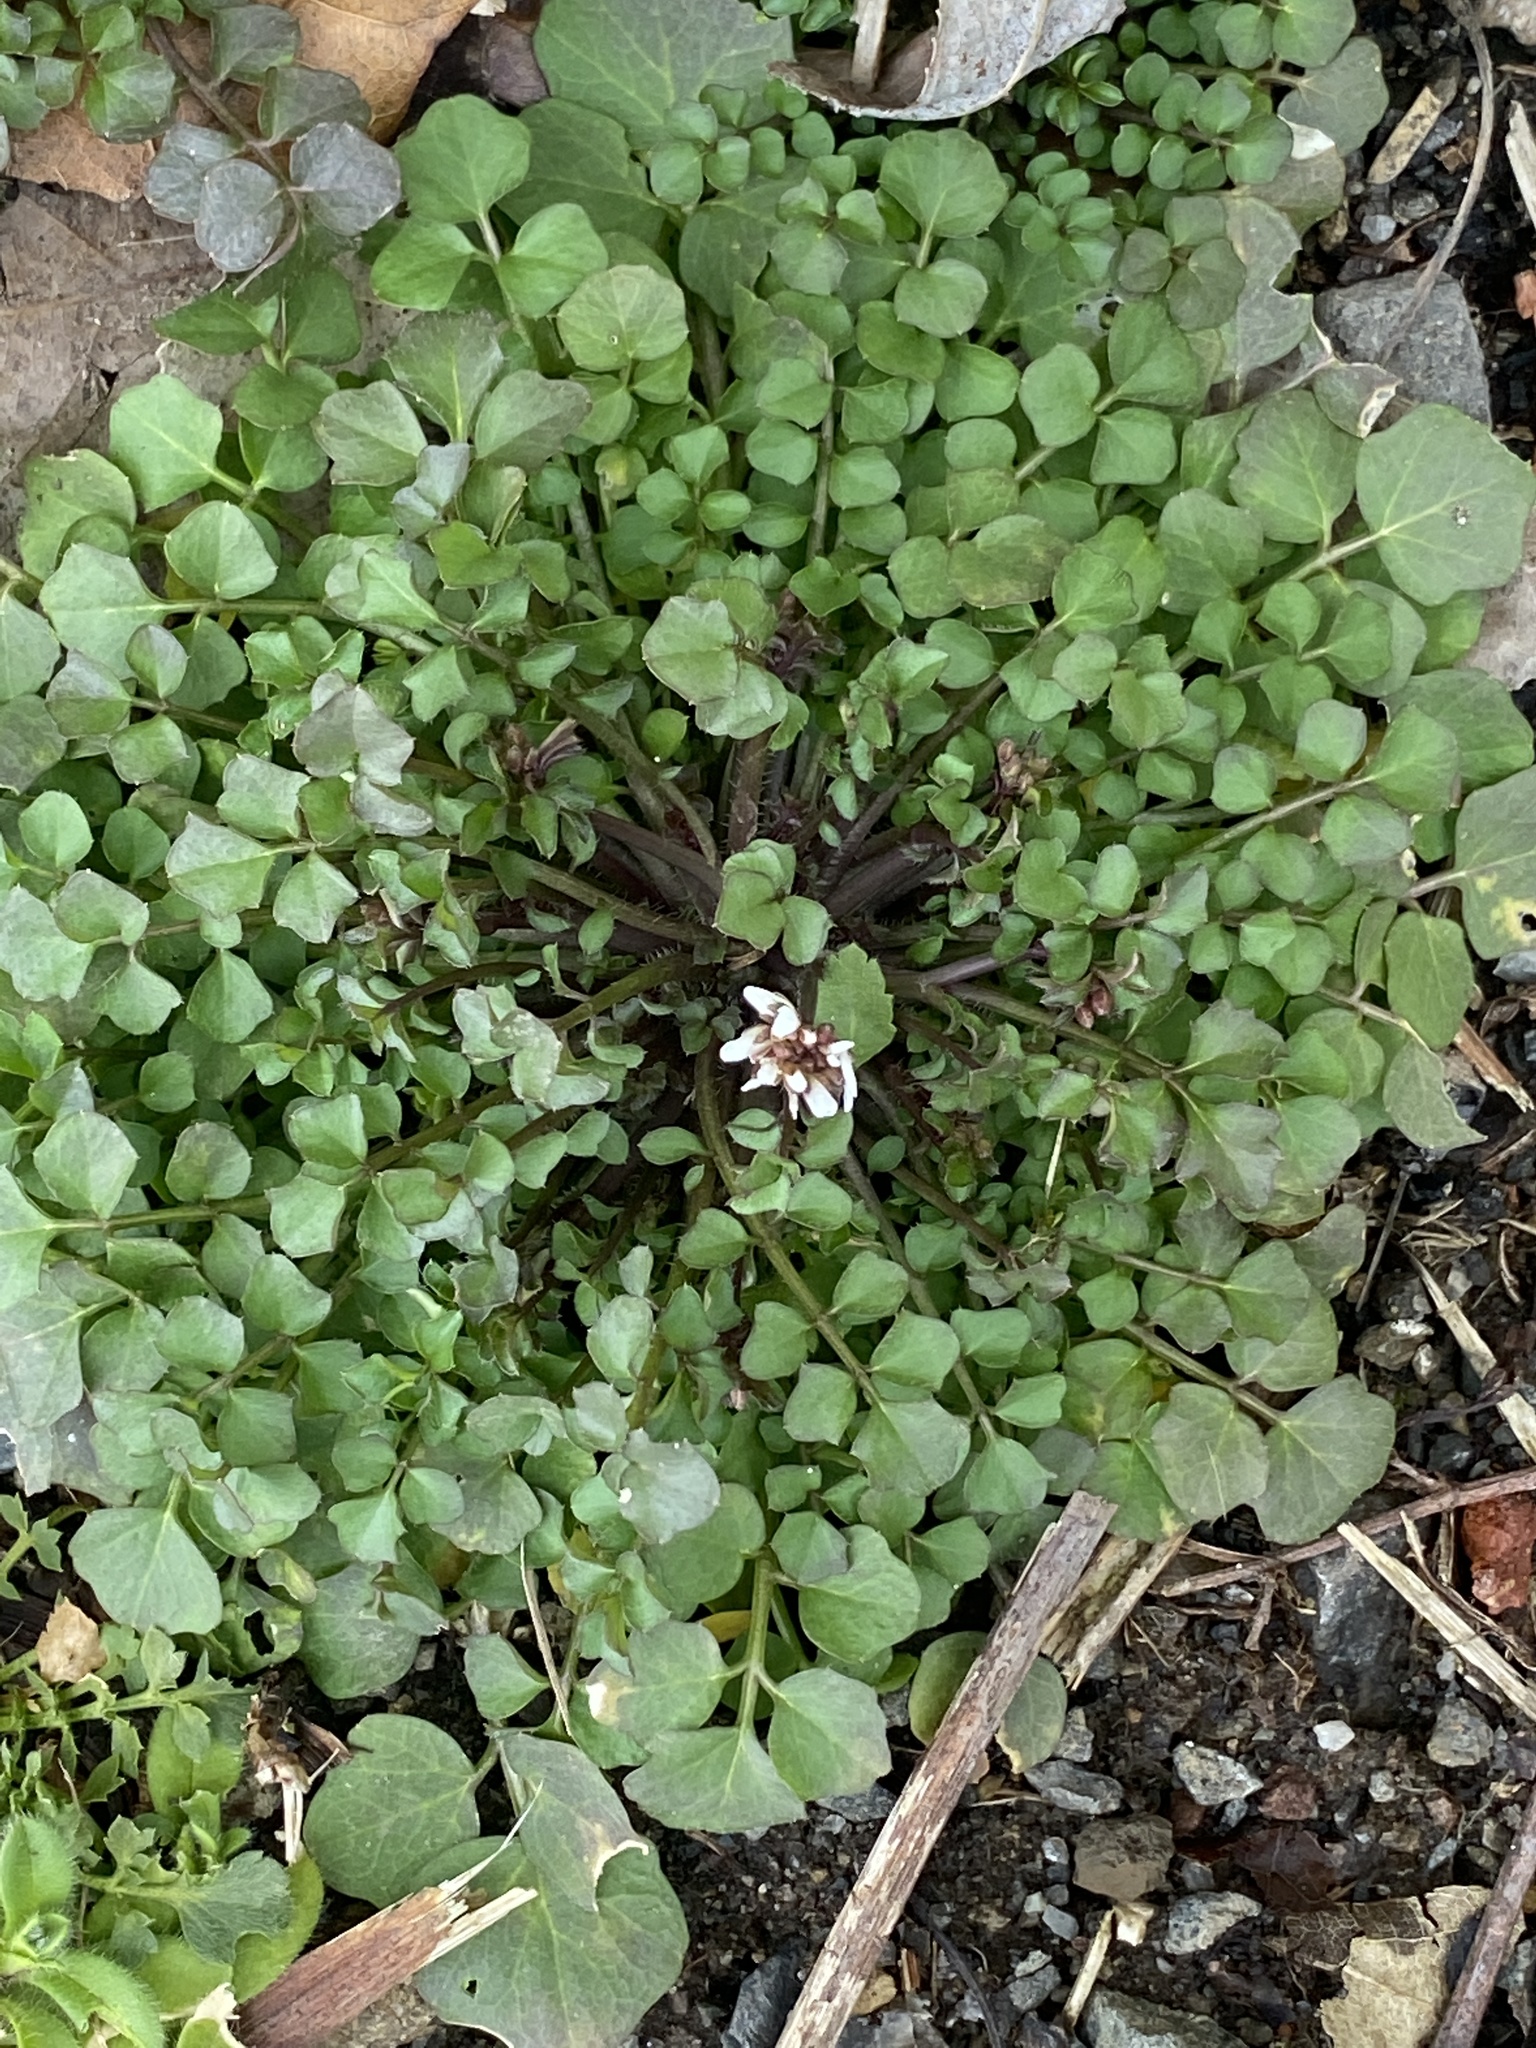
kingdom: Plantae
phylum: Tracheophyta
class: Magnoliopsida
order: Brassicales
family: Brassicaceae
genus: Cardamine
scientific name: Cardamine hirsuta
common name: Hairy bittercress
